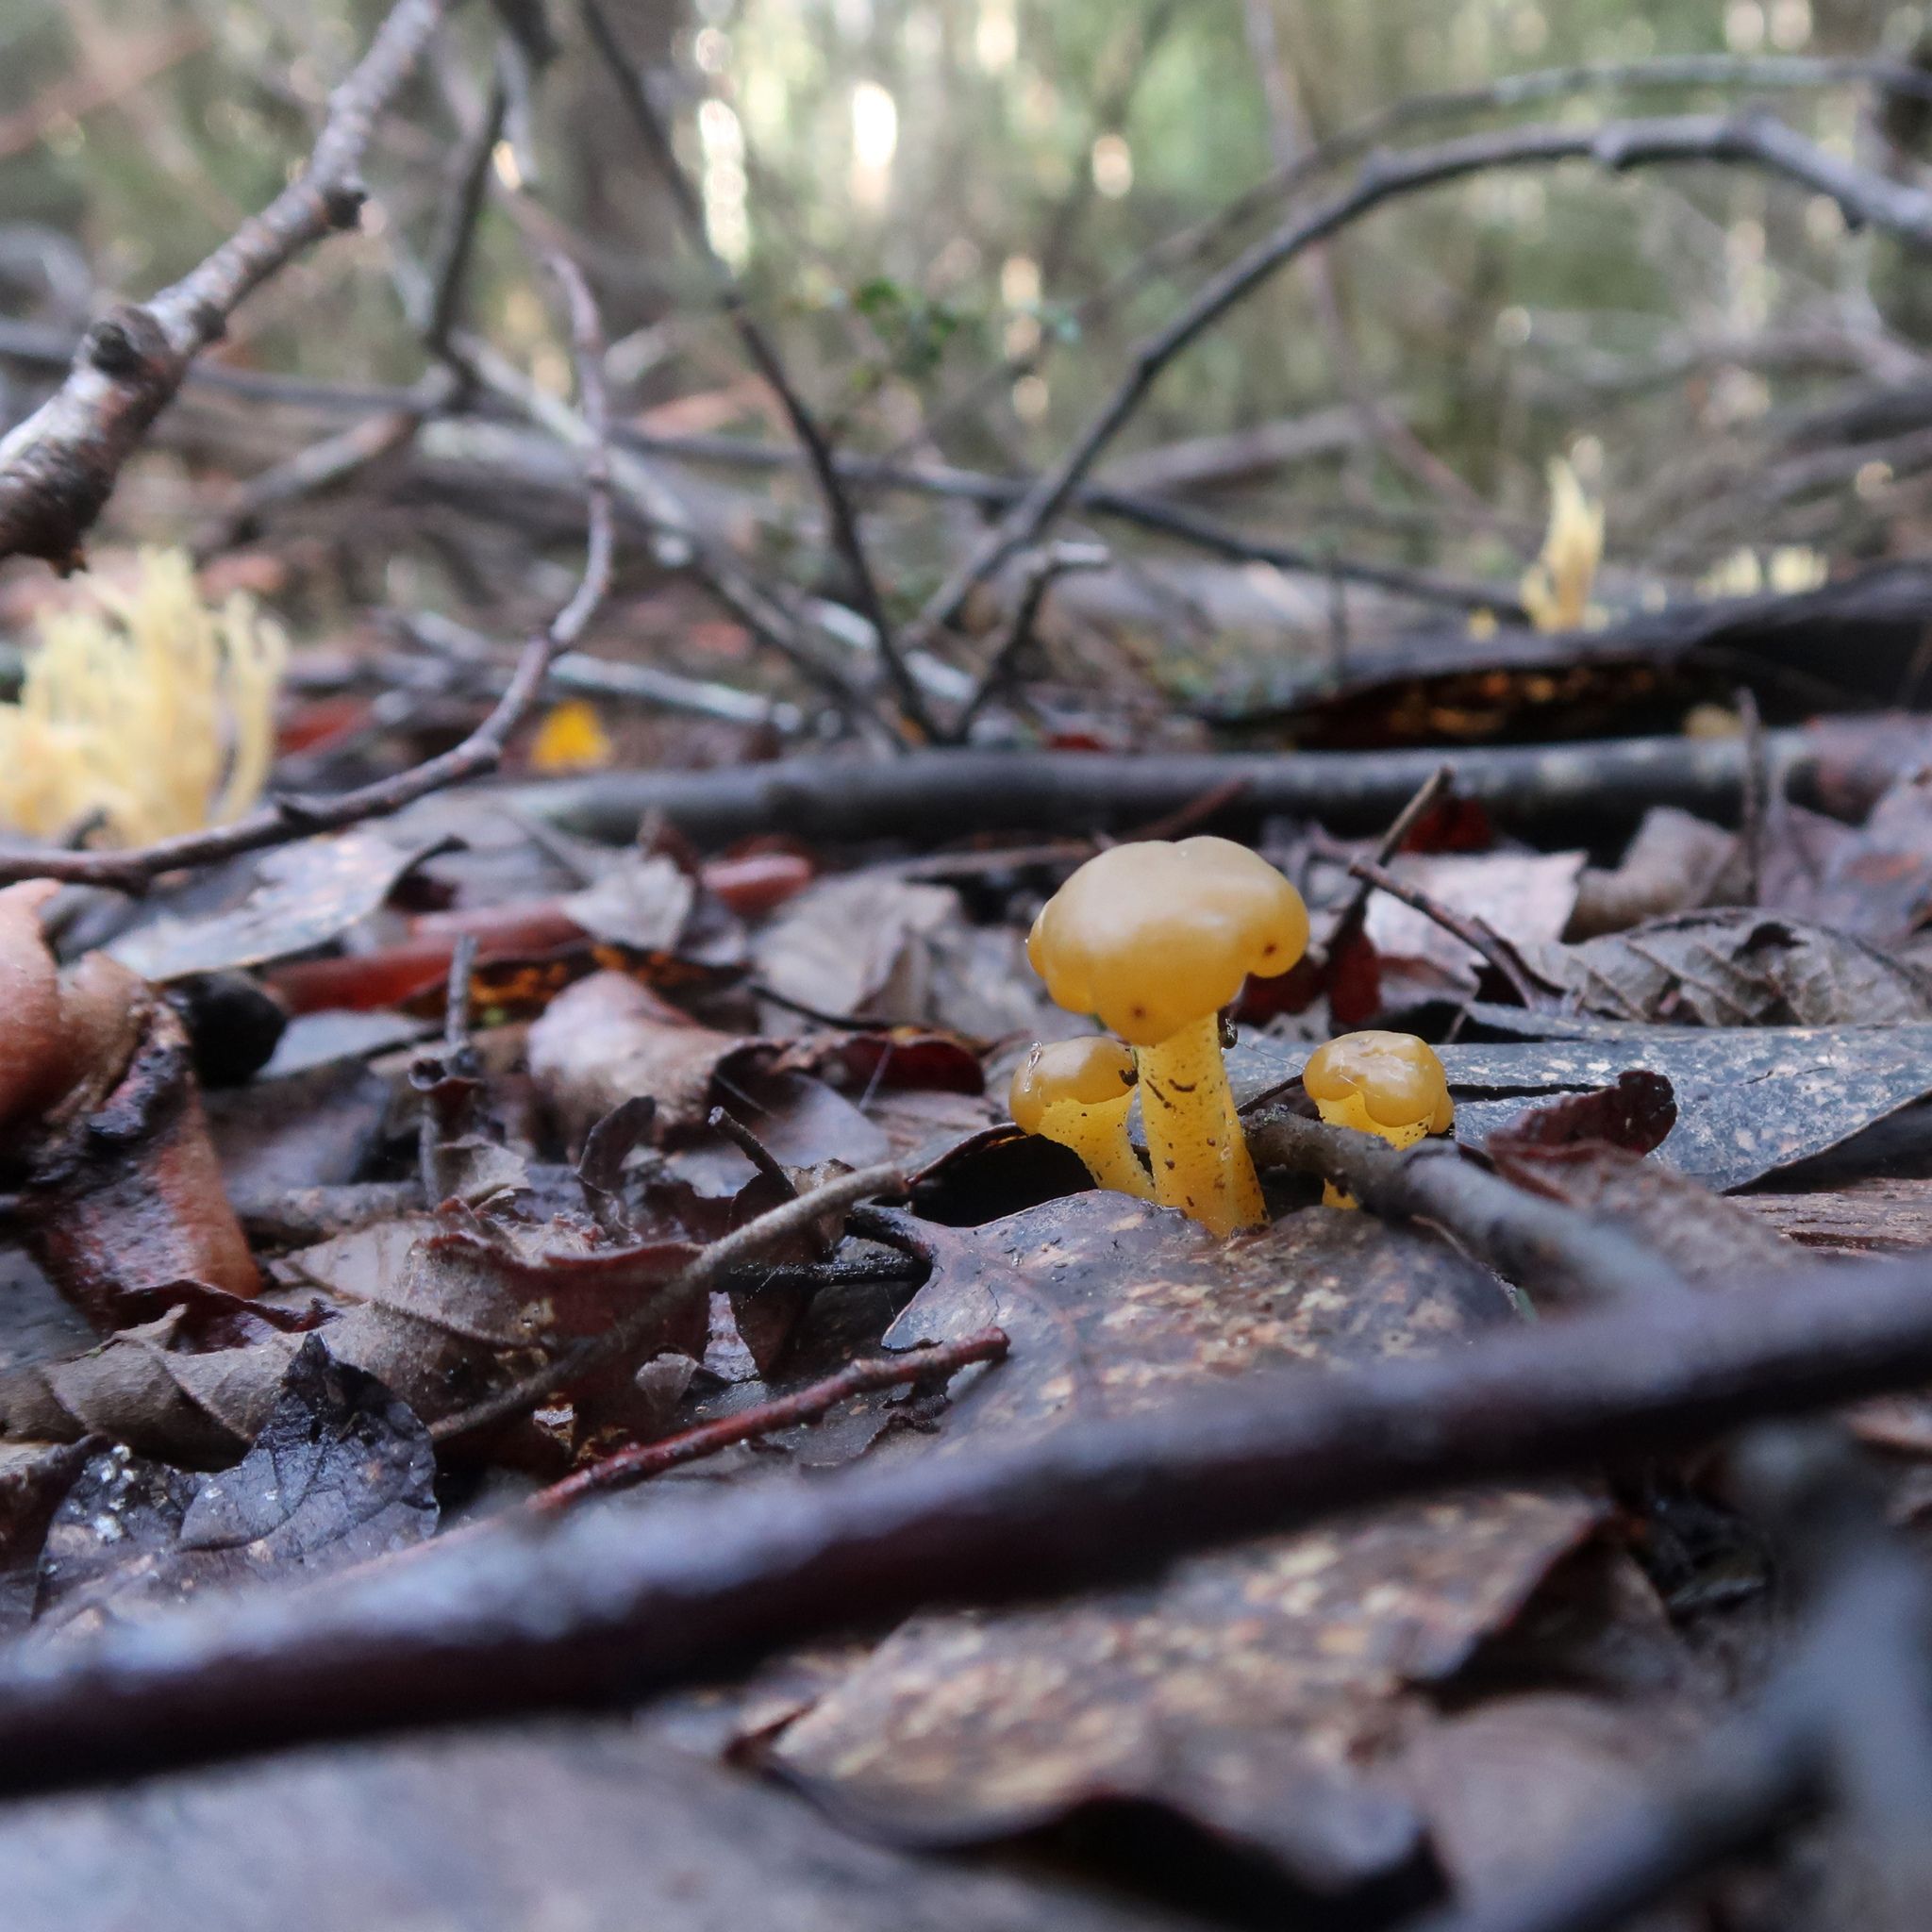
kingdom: Fungi
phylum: Ascomycota
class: Leotiomycetes
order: Leotiales
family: Leotiaceae
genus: Leotia
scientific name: Leotia lubrica
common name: Jellybaby
